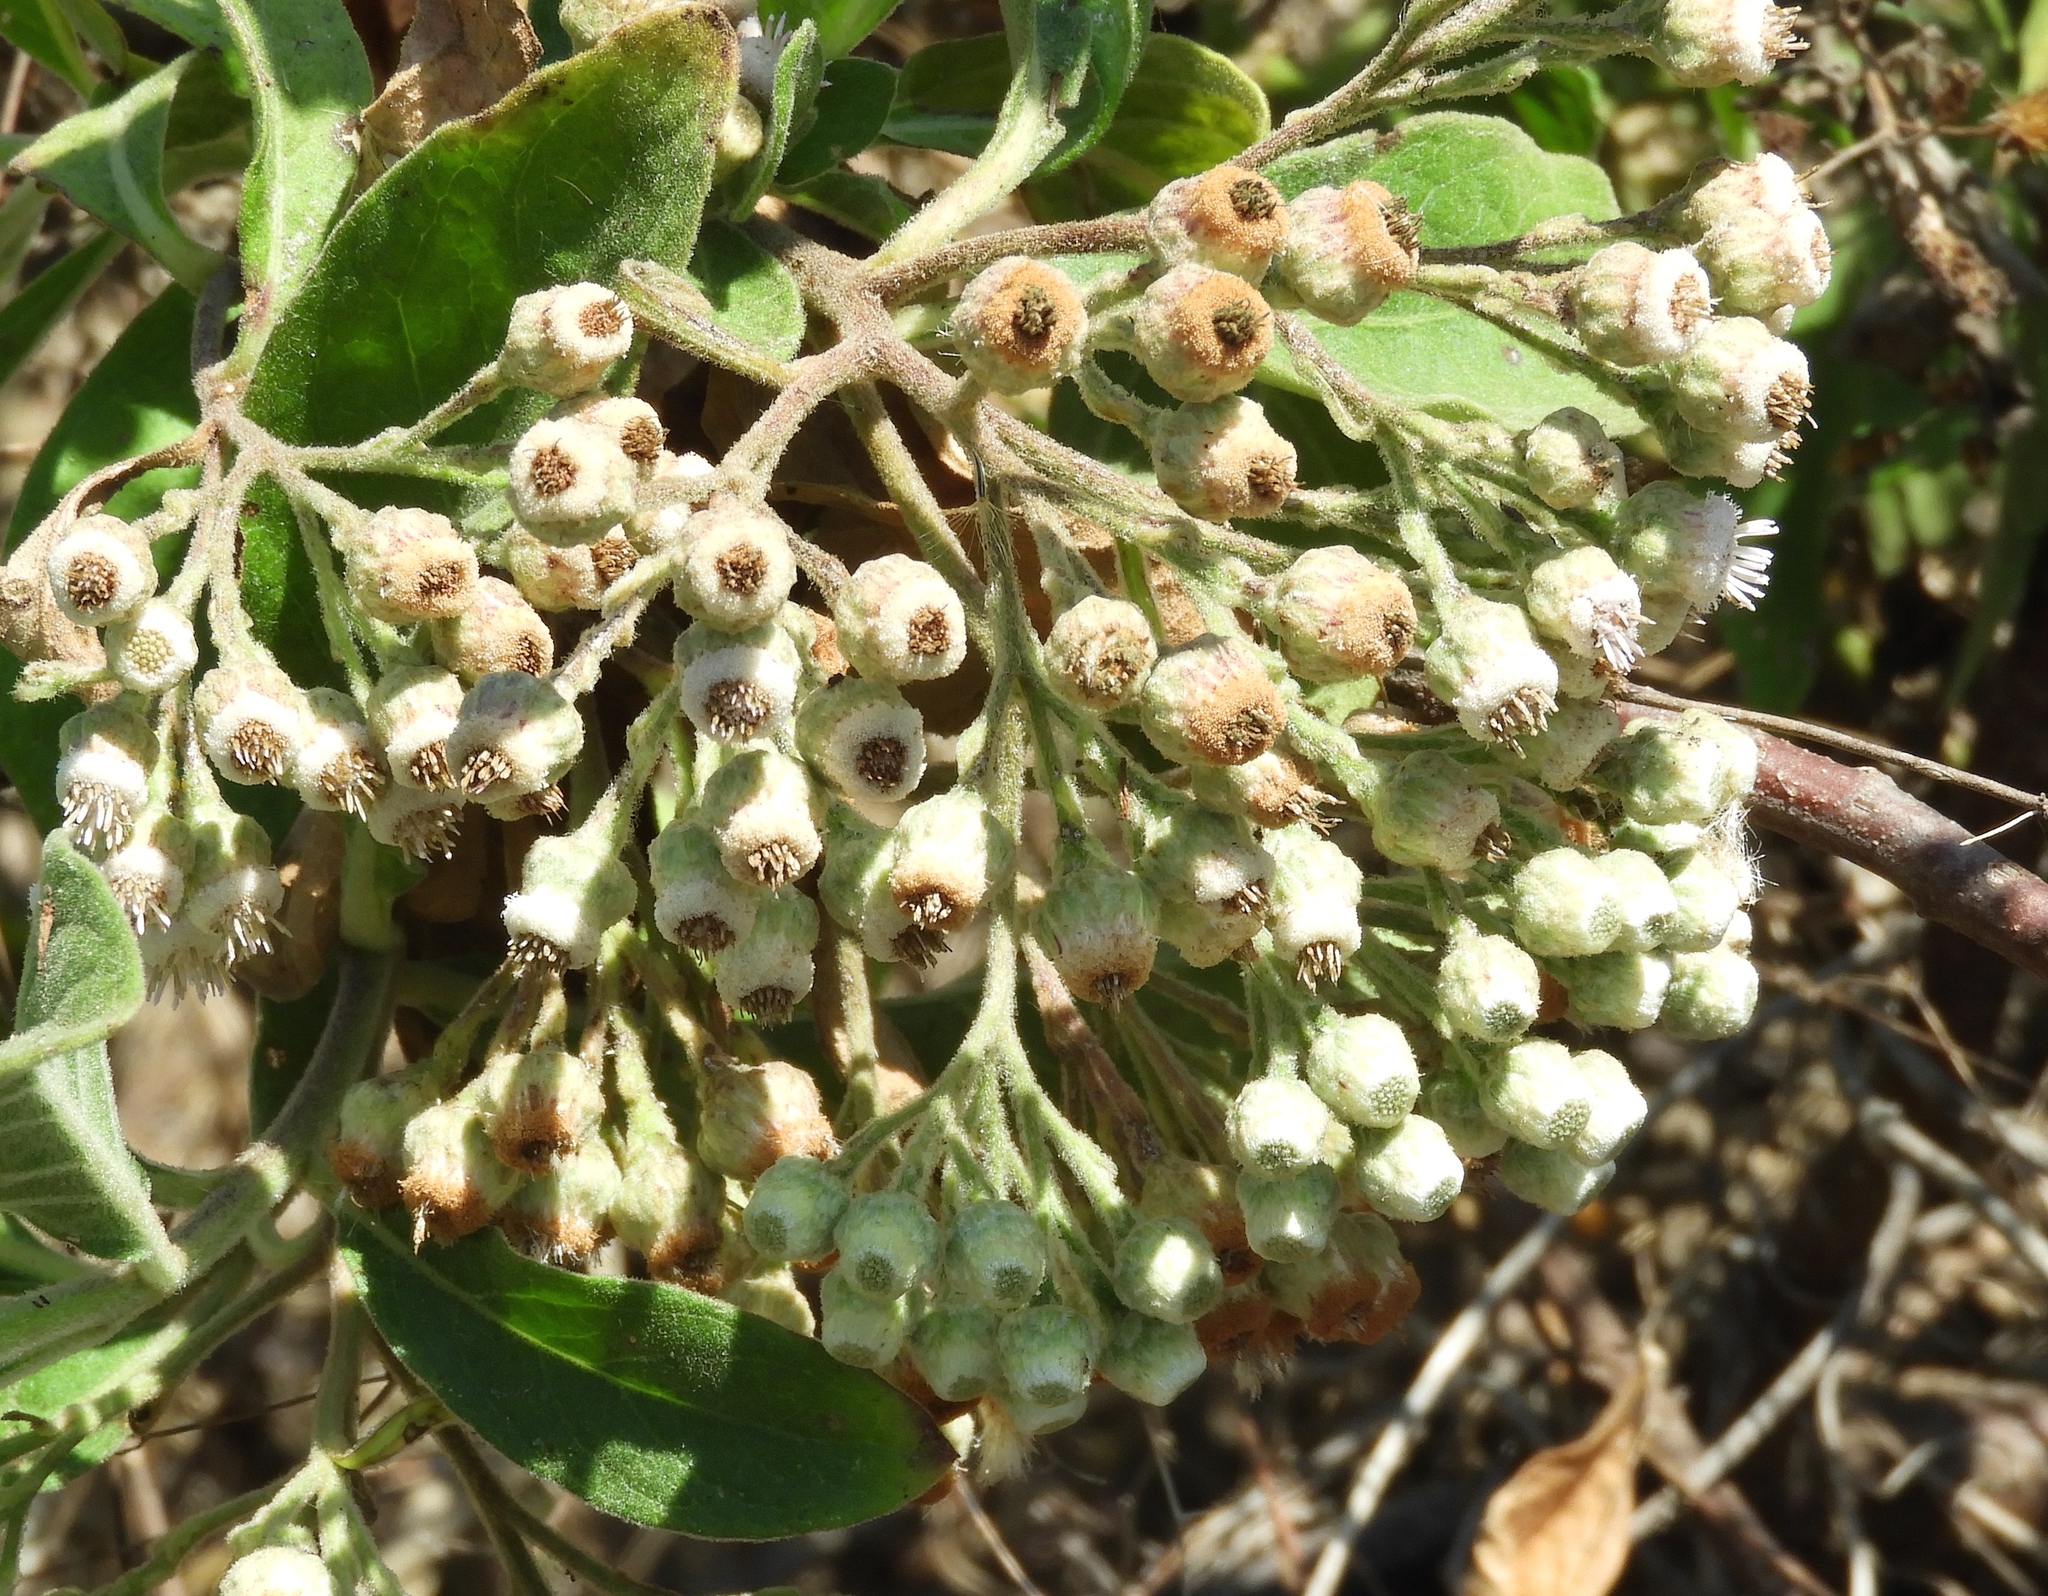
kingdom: Plantae
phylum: Tracheophyta
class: Magnoliopsida
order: Asterales
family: Asteraceae
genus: Pluchea
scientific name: Pluchea carolinensis
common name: Marsh fleabane
